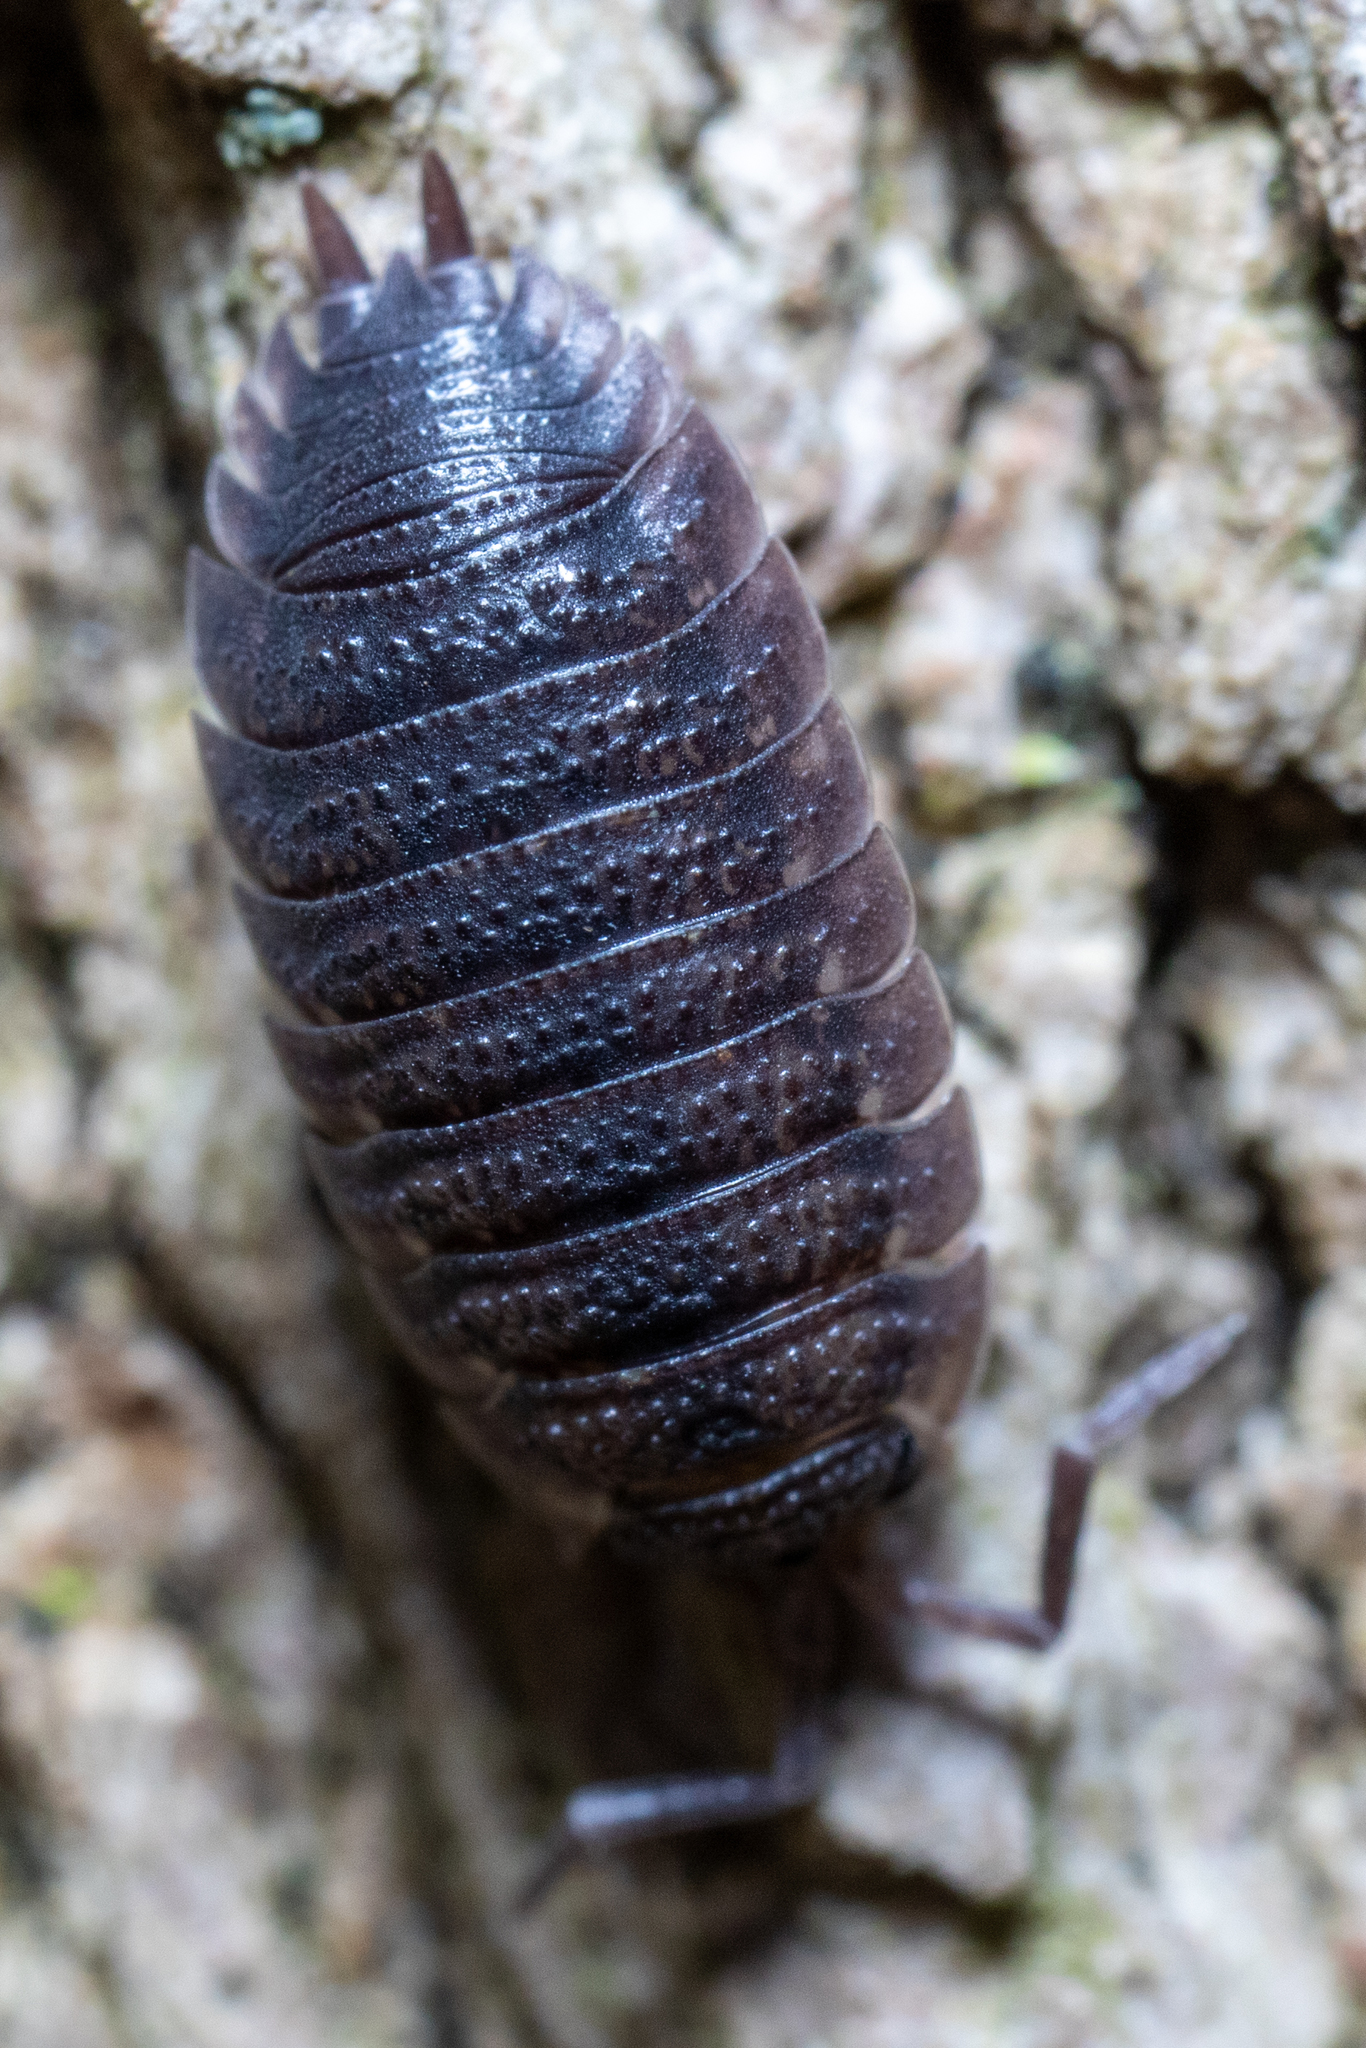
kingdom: Animalia
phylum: Arthropoda
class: Malacostraca
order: Isopoda
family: Porcellionidae
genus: Porcellio
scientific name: Porcellio scaber
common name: Common rough woodlouse
